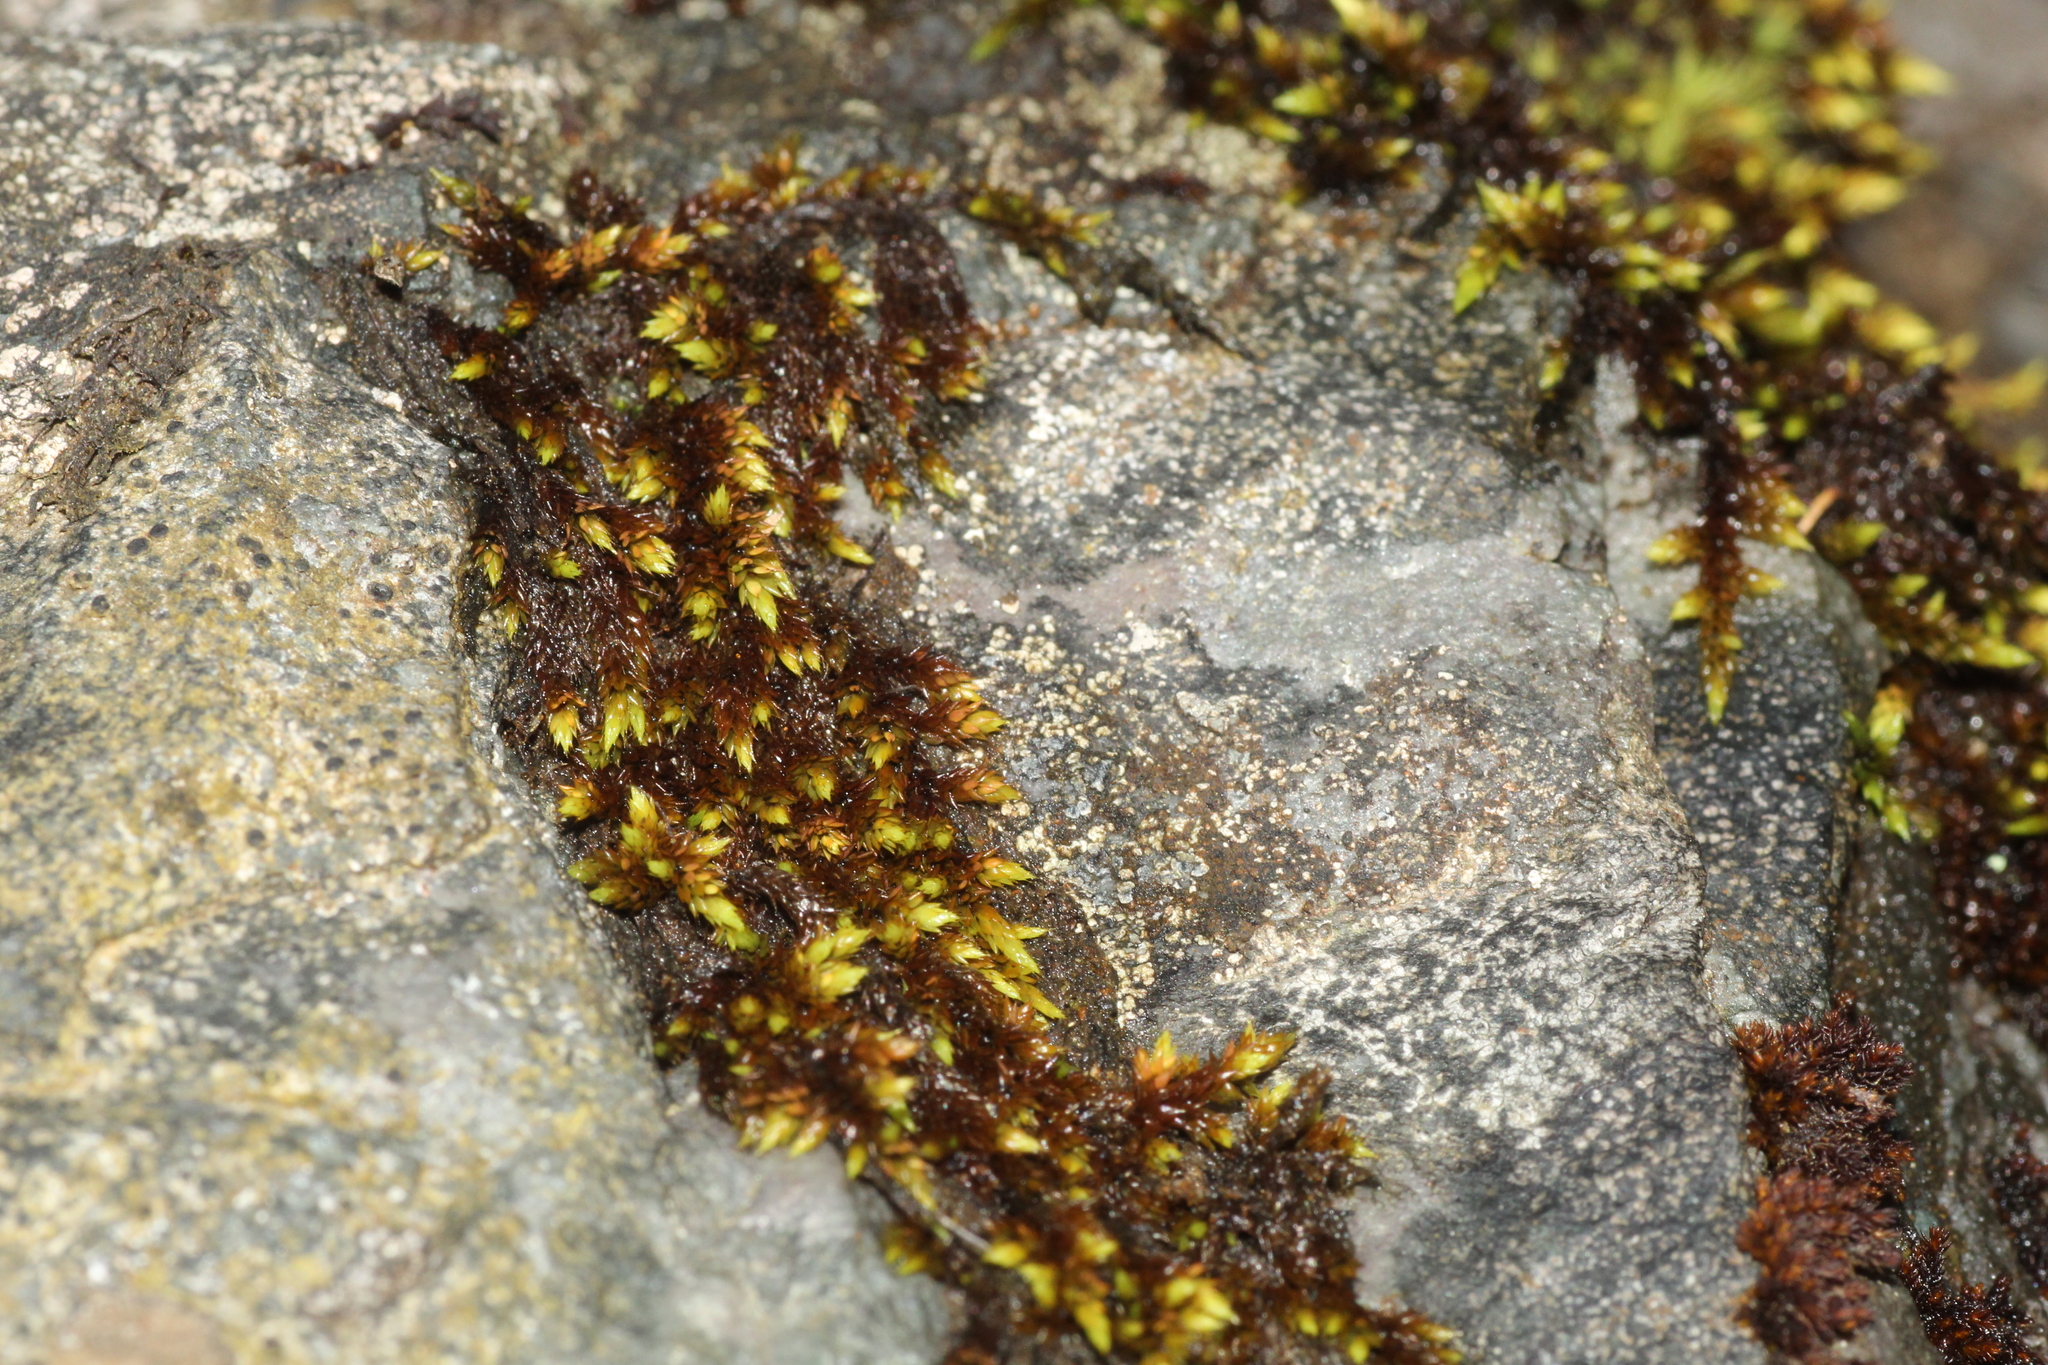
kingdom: Plantae
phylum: Bryophyta
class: Bryopsida
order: Hedwigiales
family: Hedwigiaceae
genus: Rhacocarpus
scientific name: Rhacocarpus purpurascens
